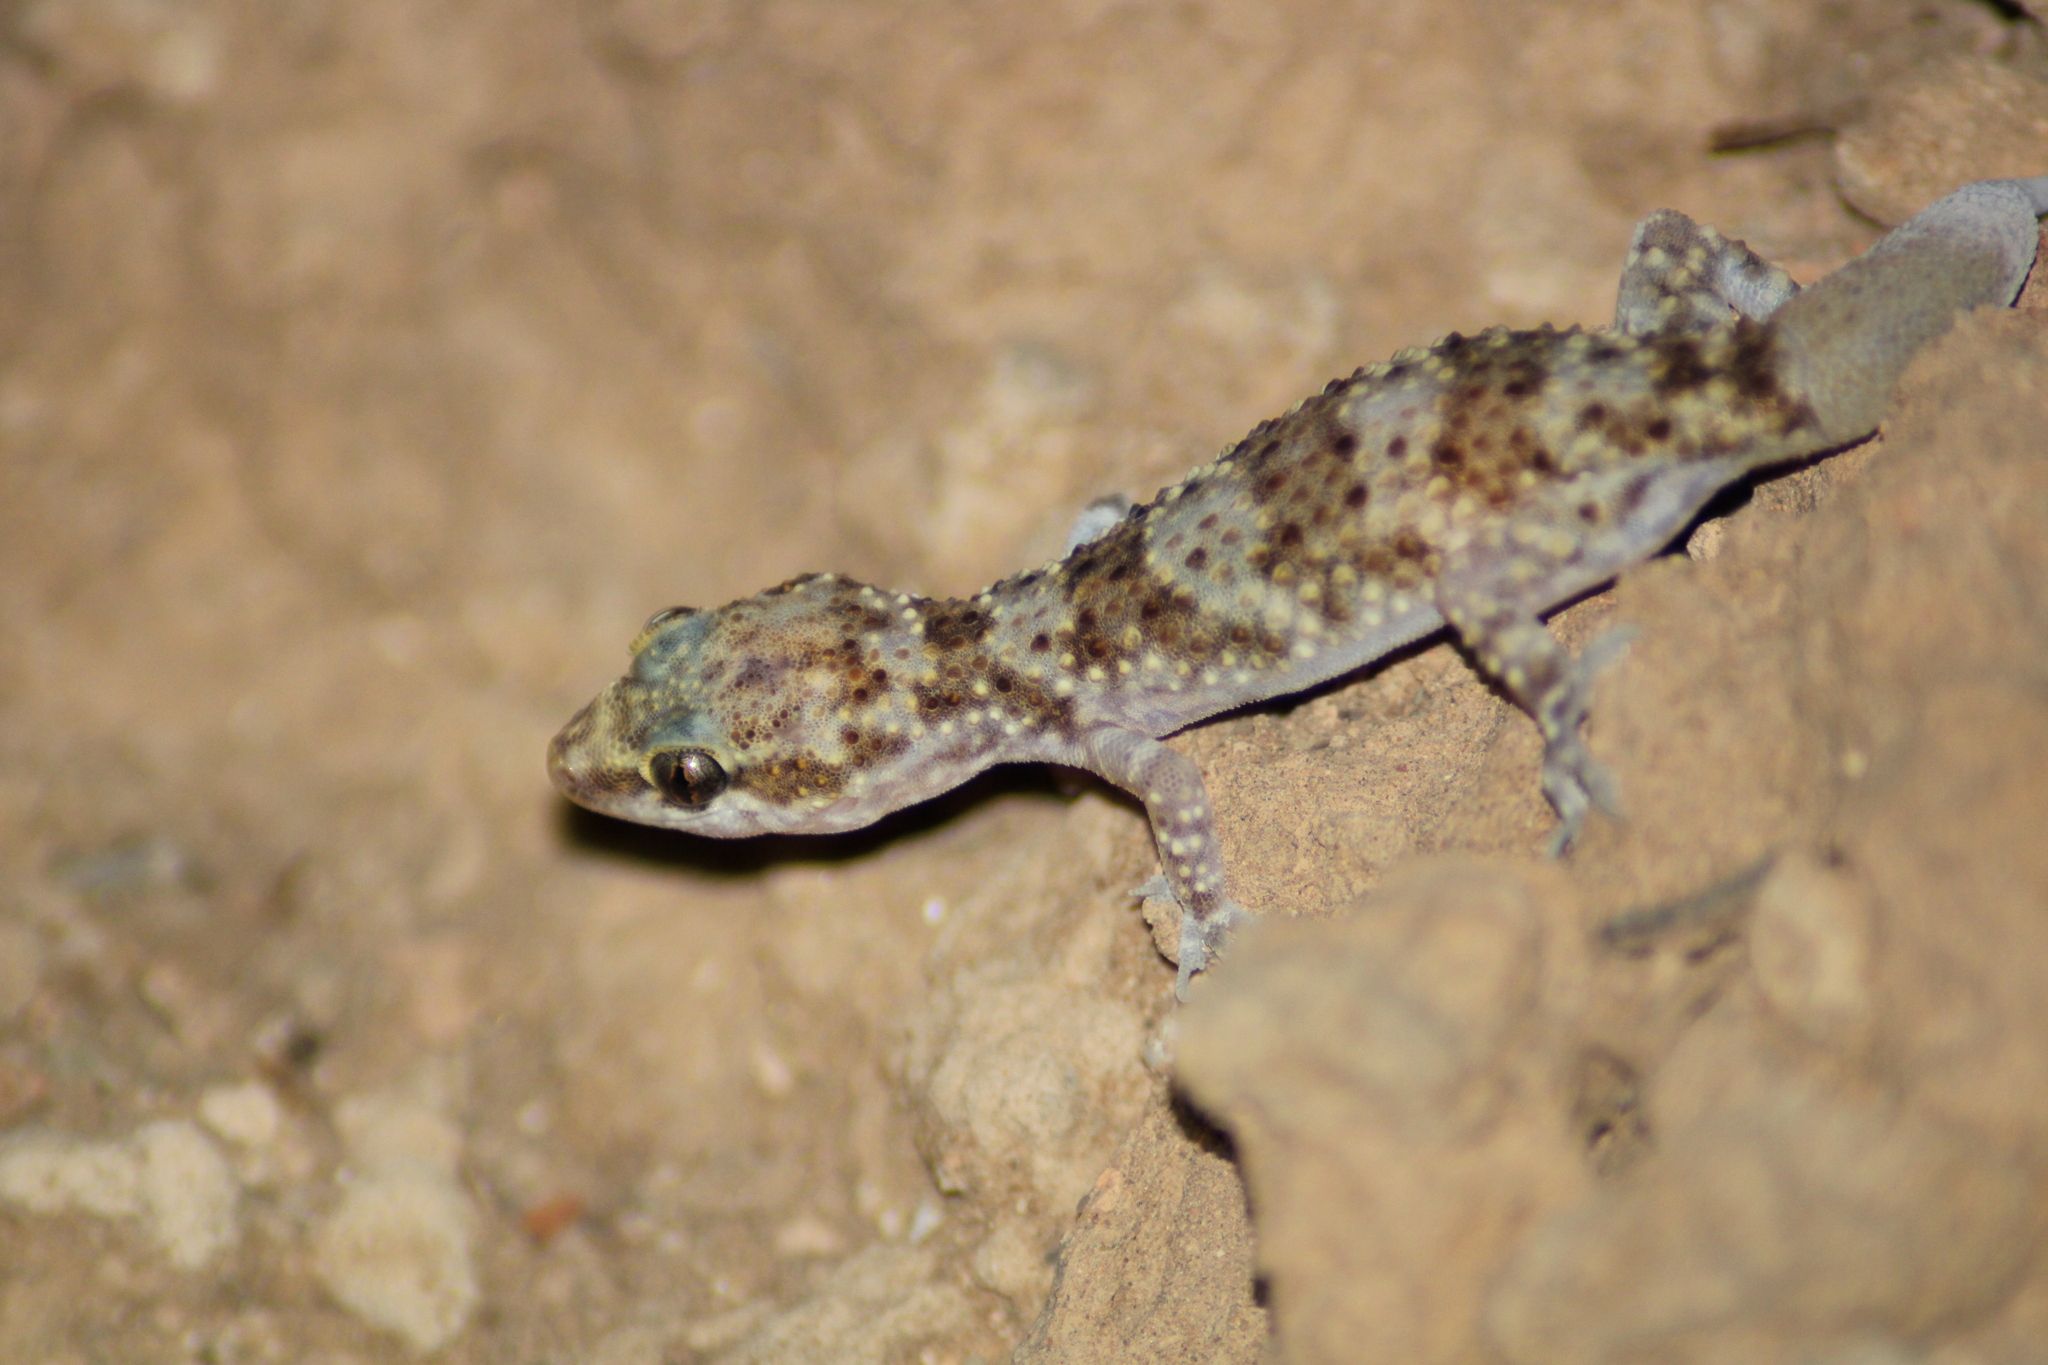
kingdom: Animalia
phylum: Chordata
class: Squamata
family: Gekkonidae
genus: Hemidactylus
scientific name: Hemidactylus turcicus
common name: Turkish gecko
